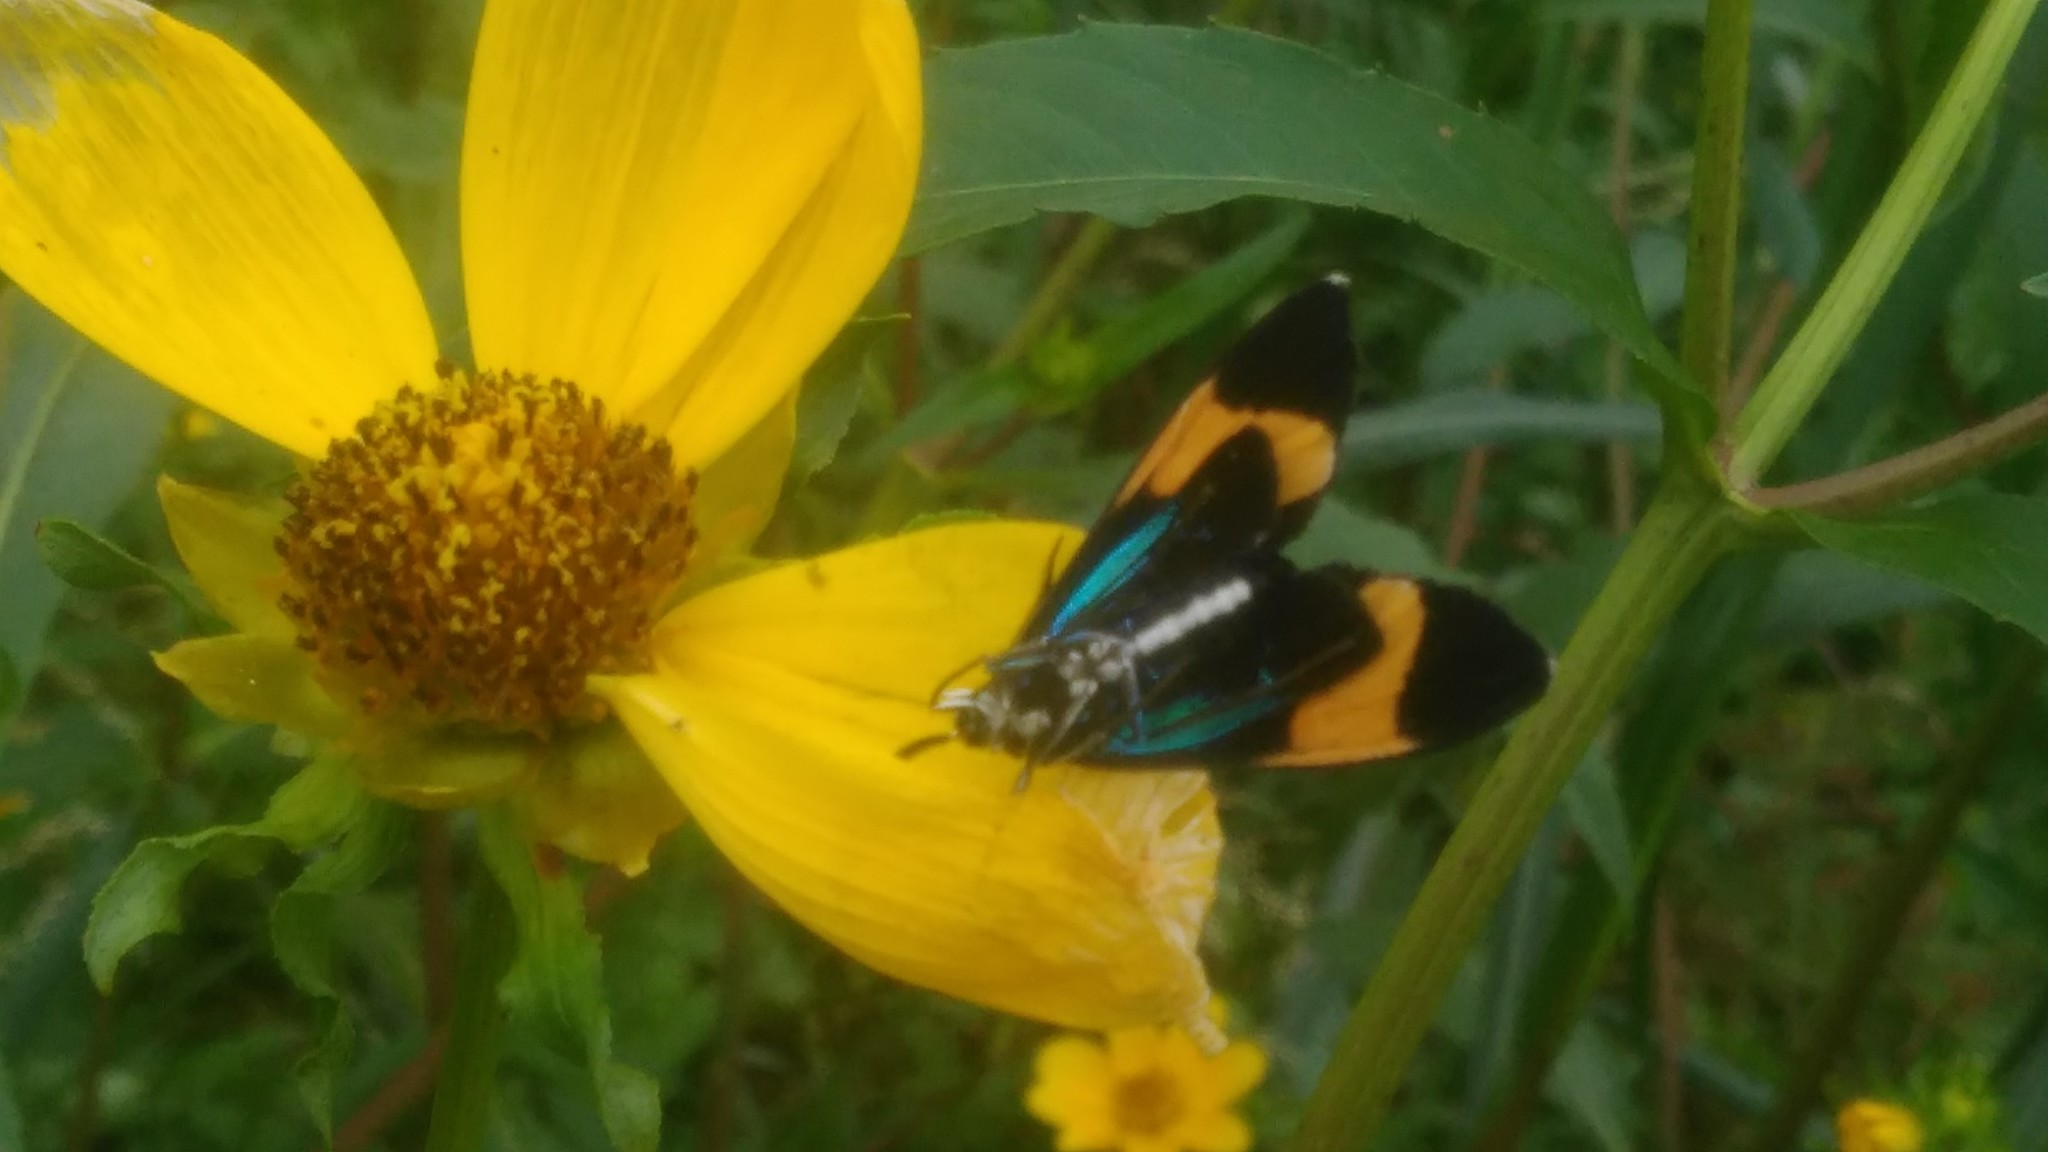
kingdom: Animalia
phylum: Arthropoda
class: Insecta
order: Lepidoptera
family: Erebidae
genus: Cyanopepla
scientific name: Cyanopepla similis
